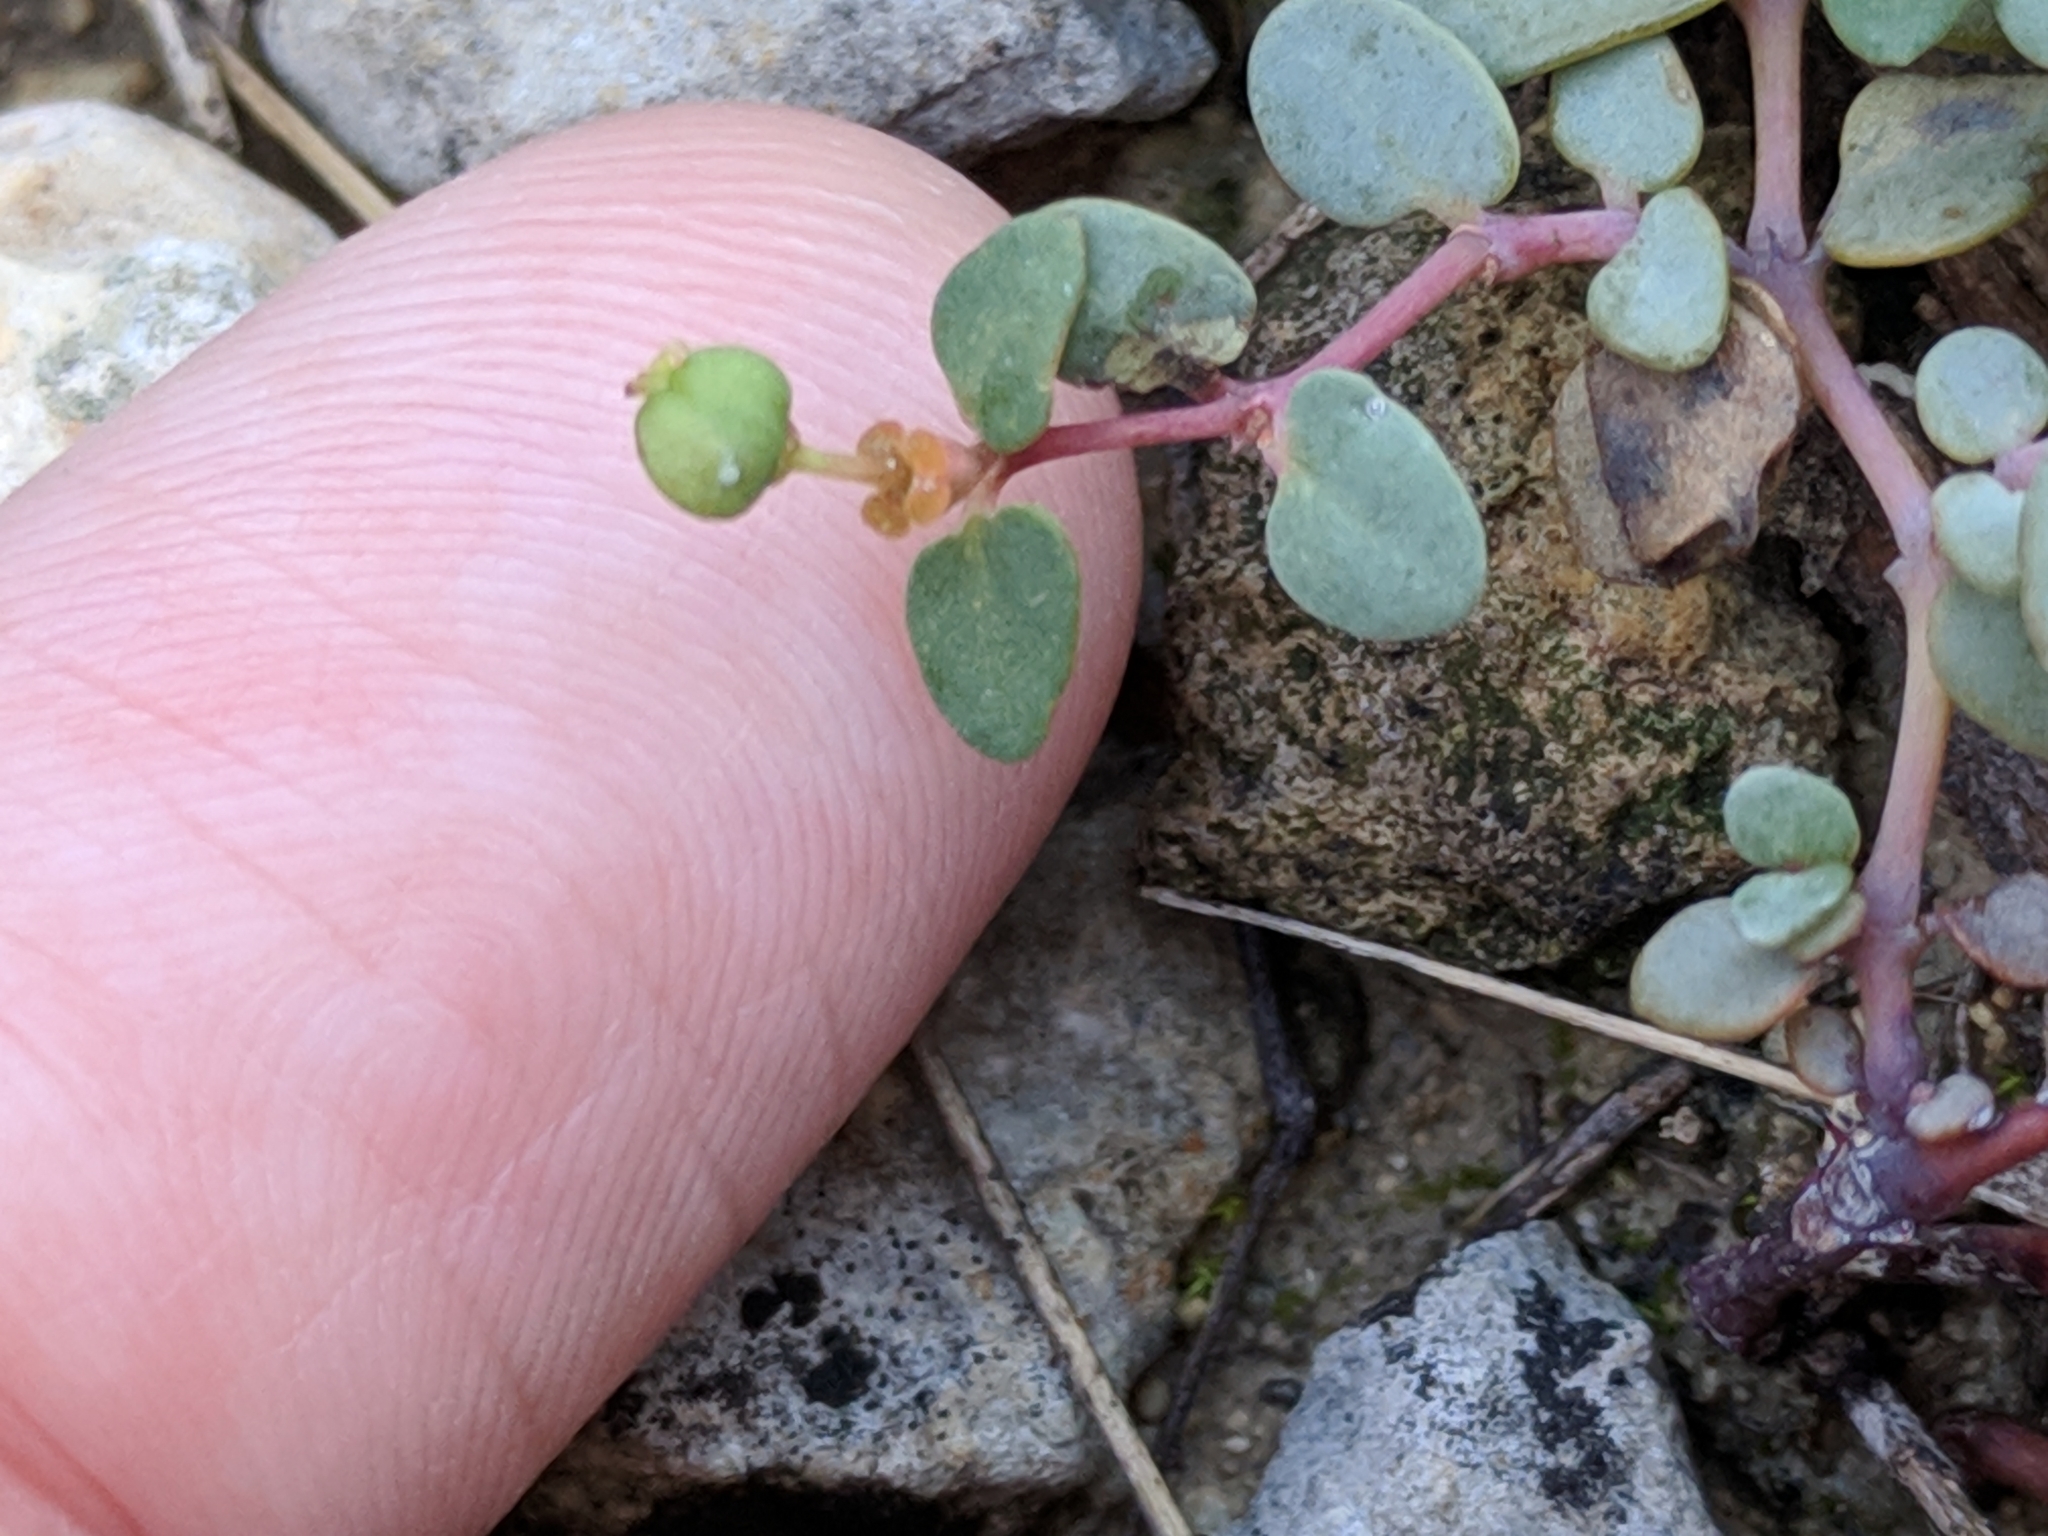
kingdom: Plantae
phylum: Tracheophyta
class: Magnoliopsida
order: Malpighiales
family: Euphorbiaceae
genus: Euphorbia
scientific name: Euphorbia fendleri
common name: Fendler's euphorbia
